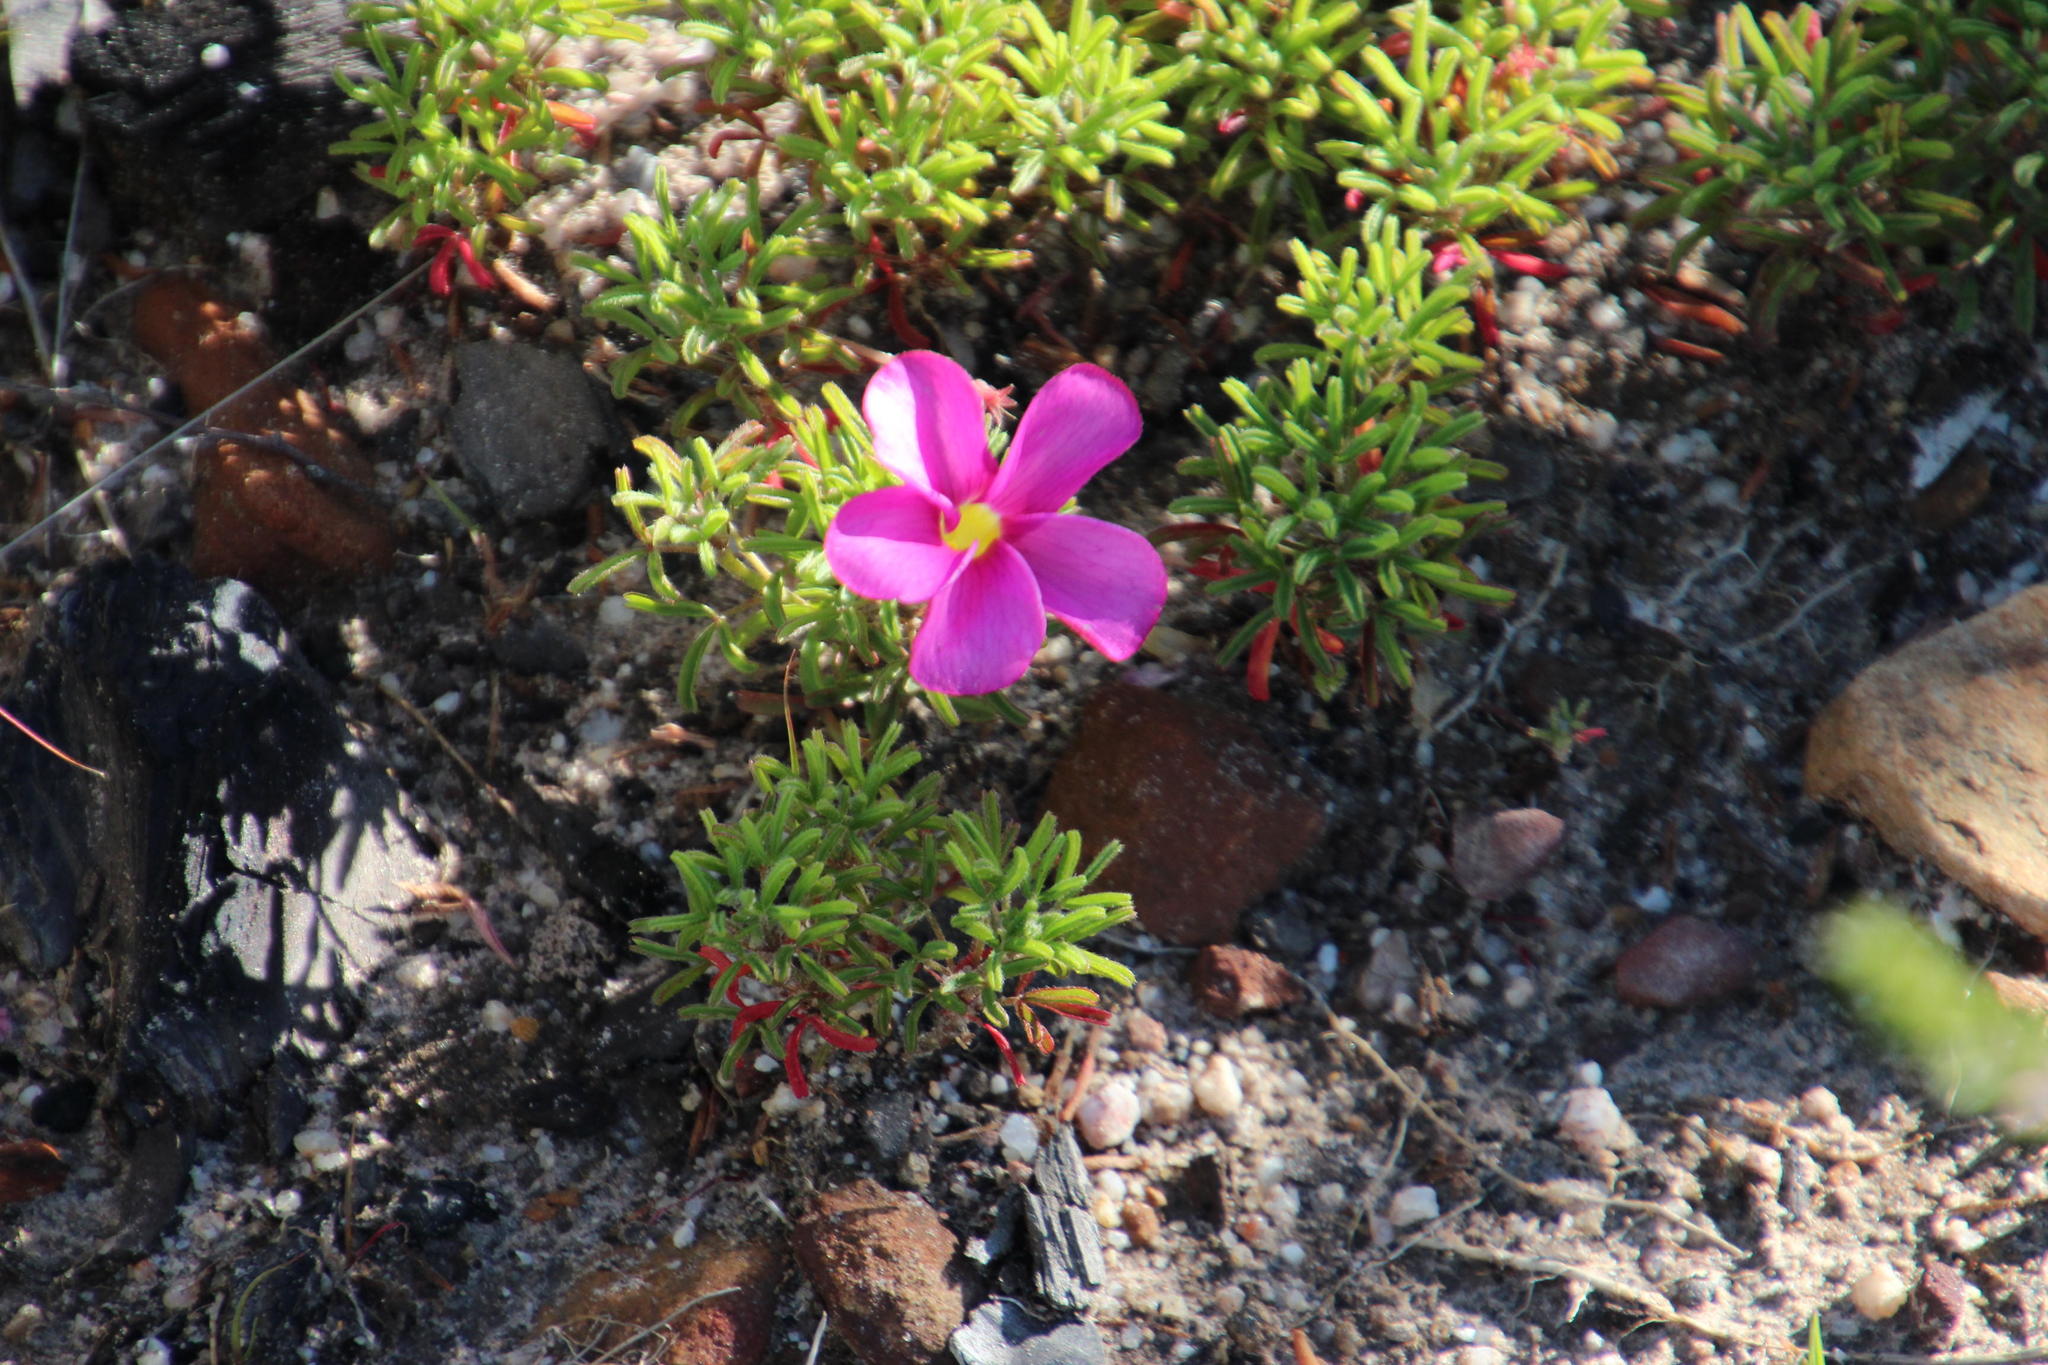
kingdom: Plantae
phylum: Tracheophyta
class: Magnoliopsida
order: Oxalidales
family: Oxalidaceae
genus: Oxalis
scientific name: Oxalis glabra
